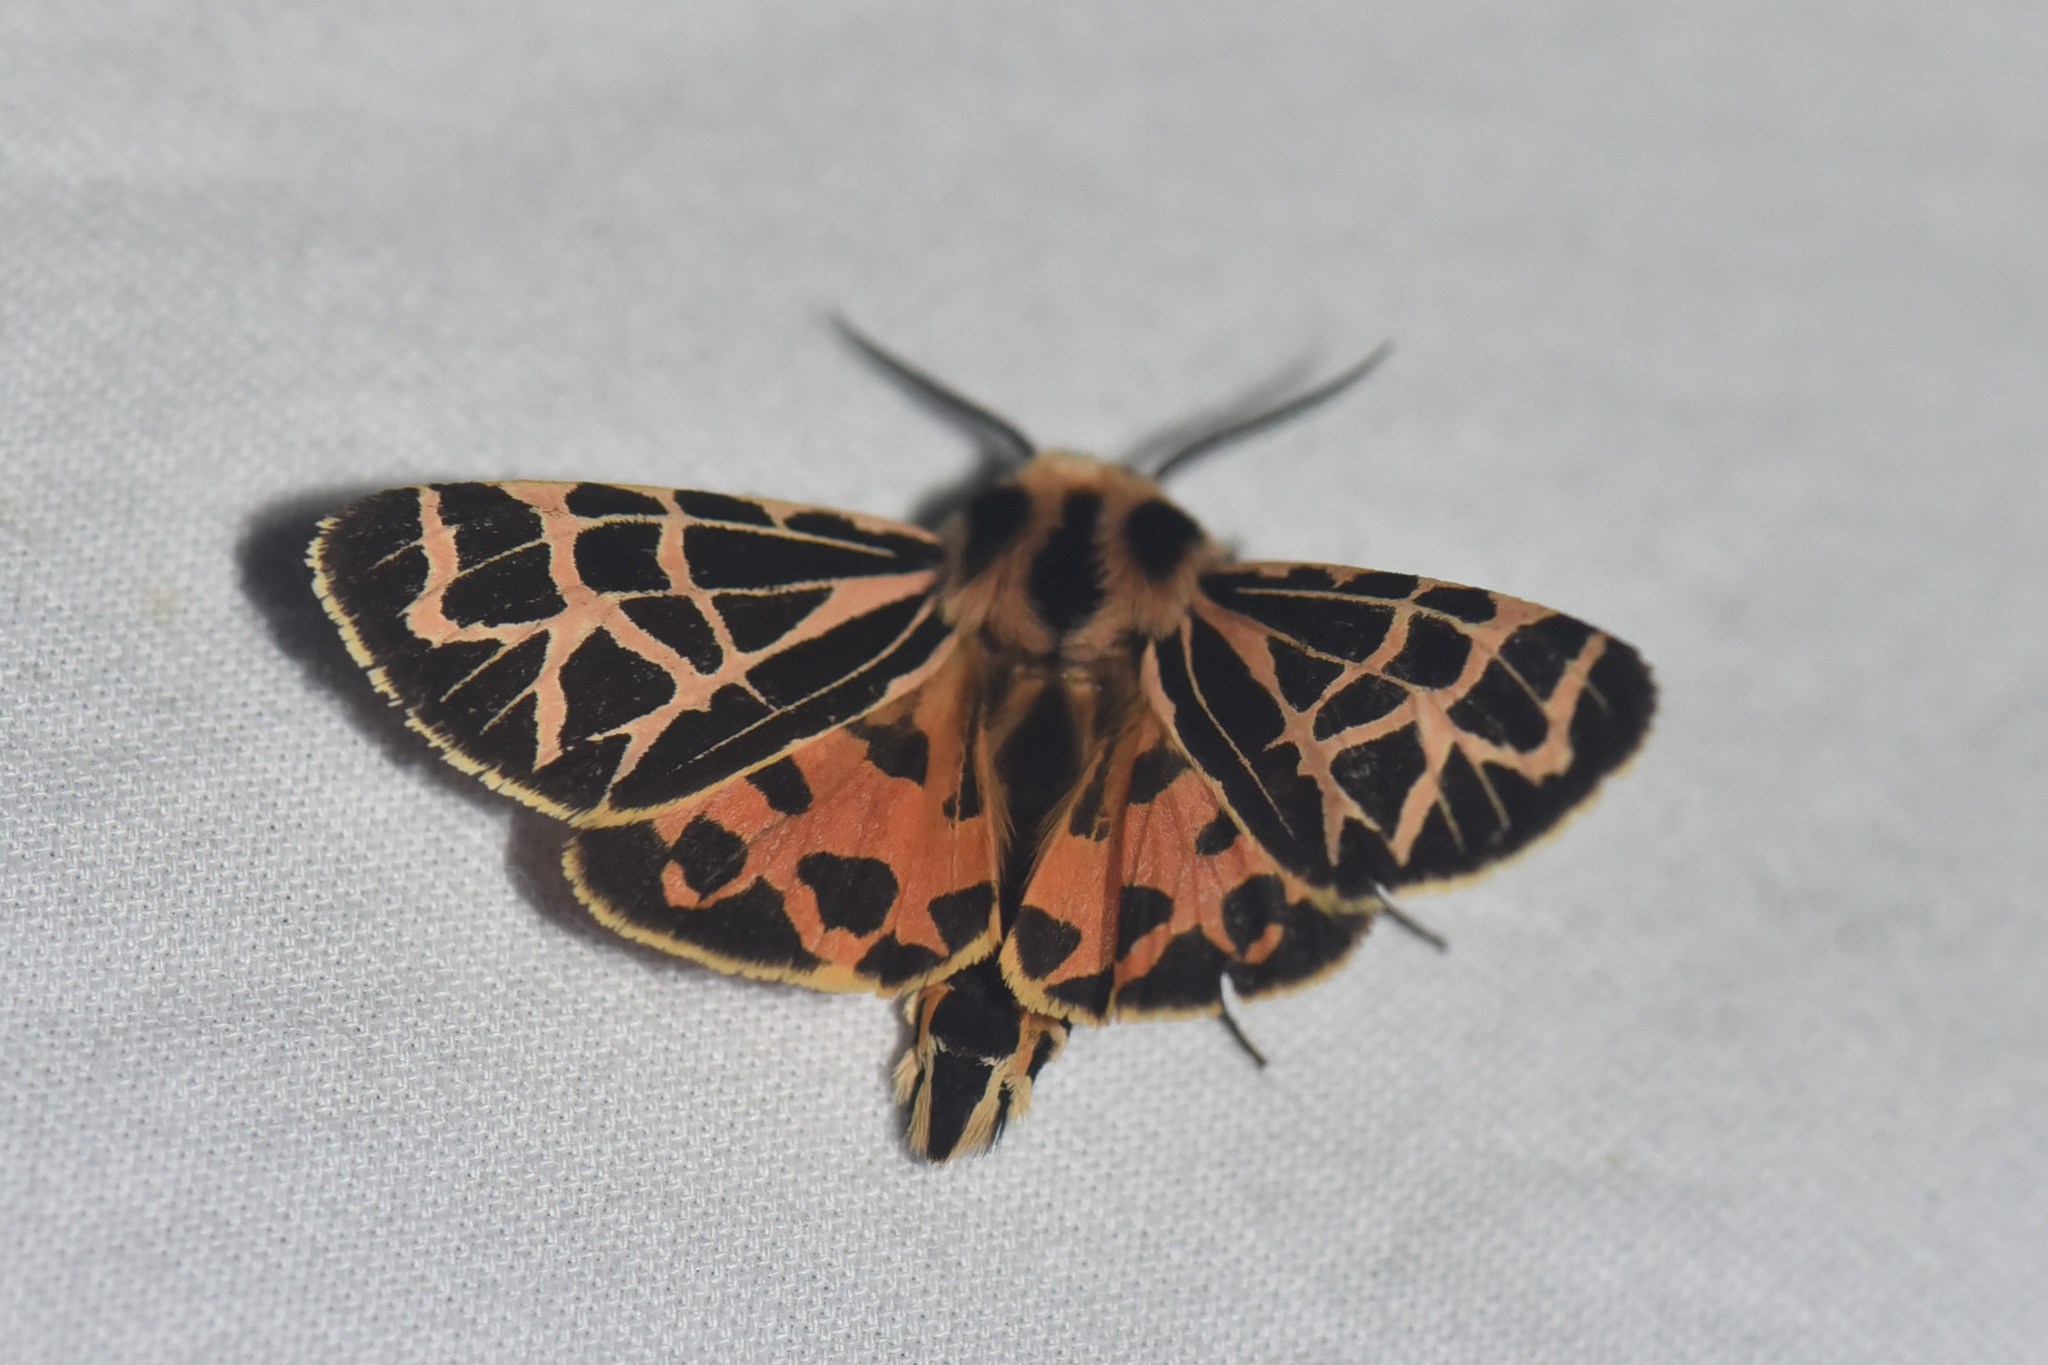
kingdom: Animalia
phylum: Arthropoda
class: Insecta
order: Lepidoptera
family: Erebidae
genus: Apantesis
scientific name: Apantesis
